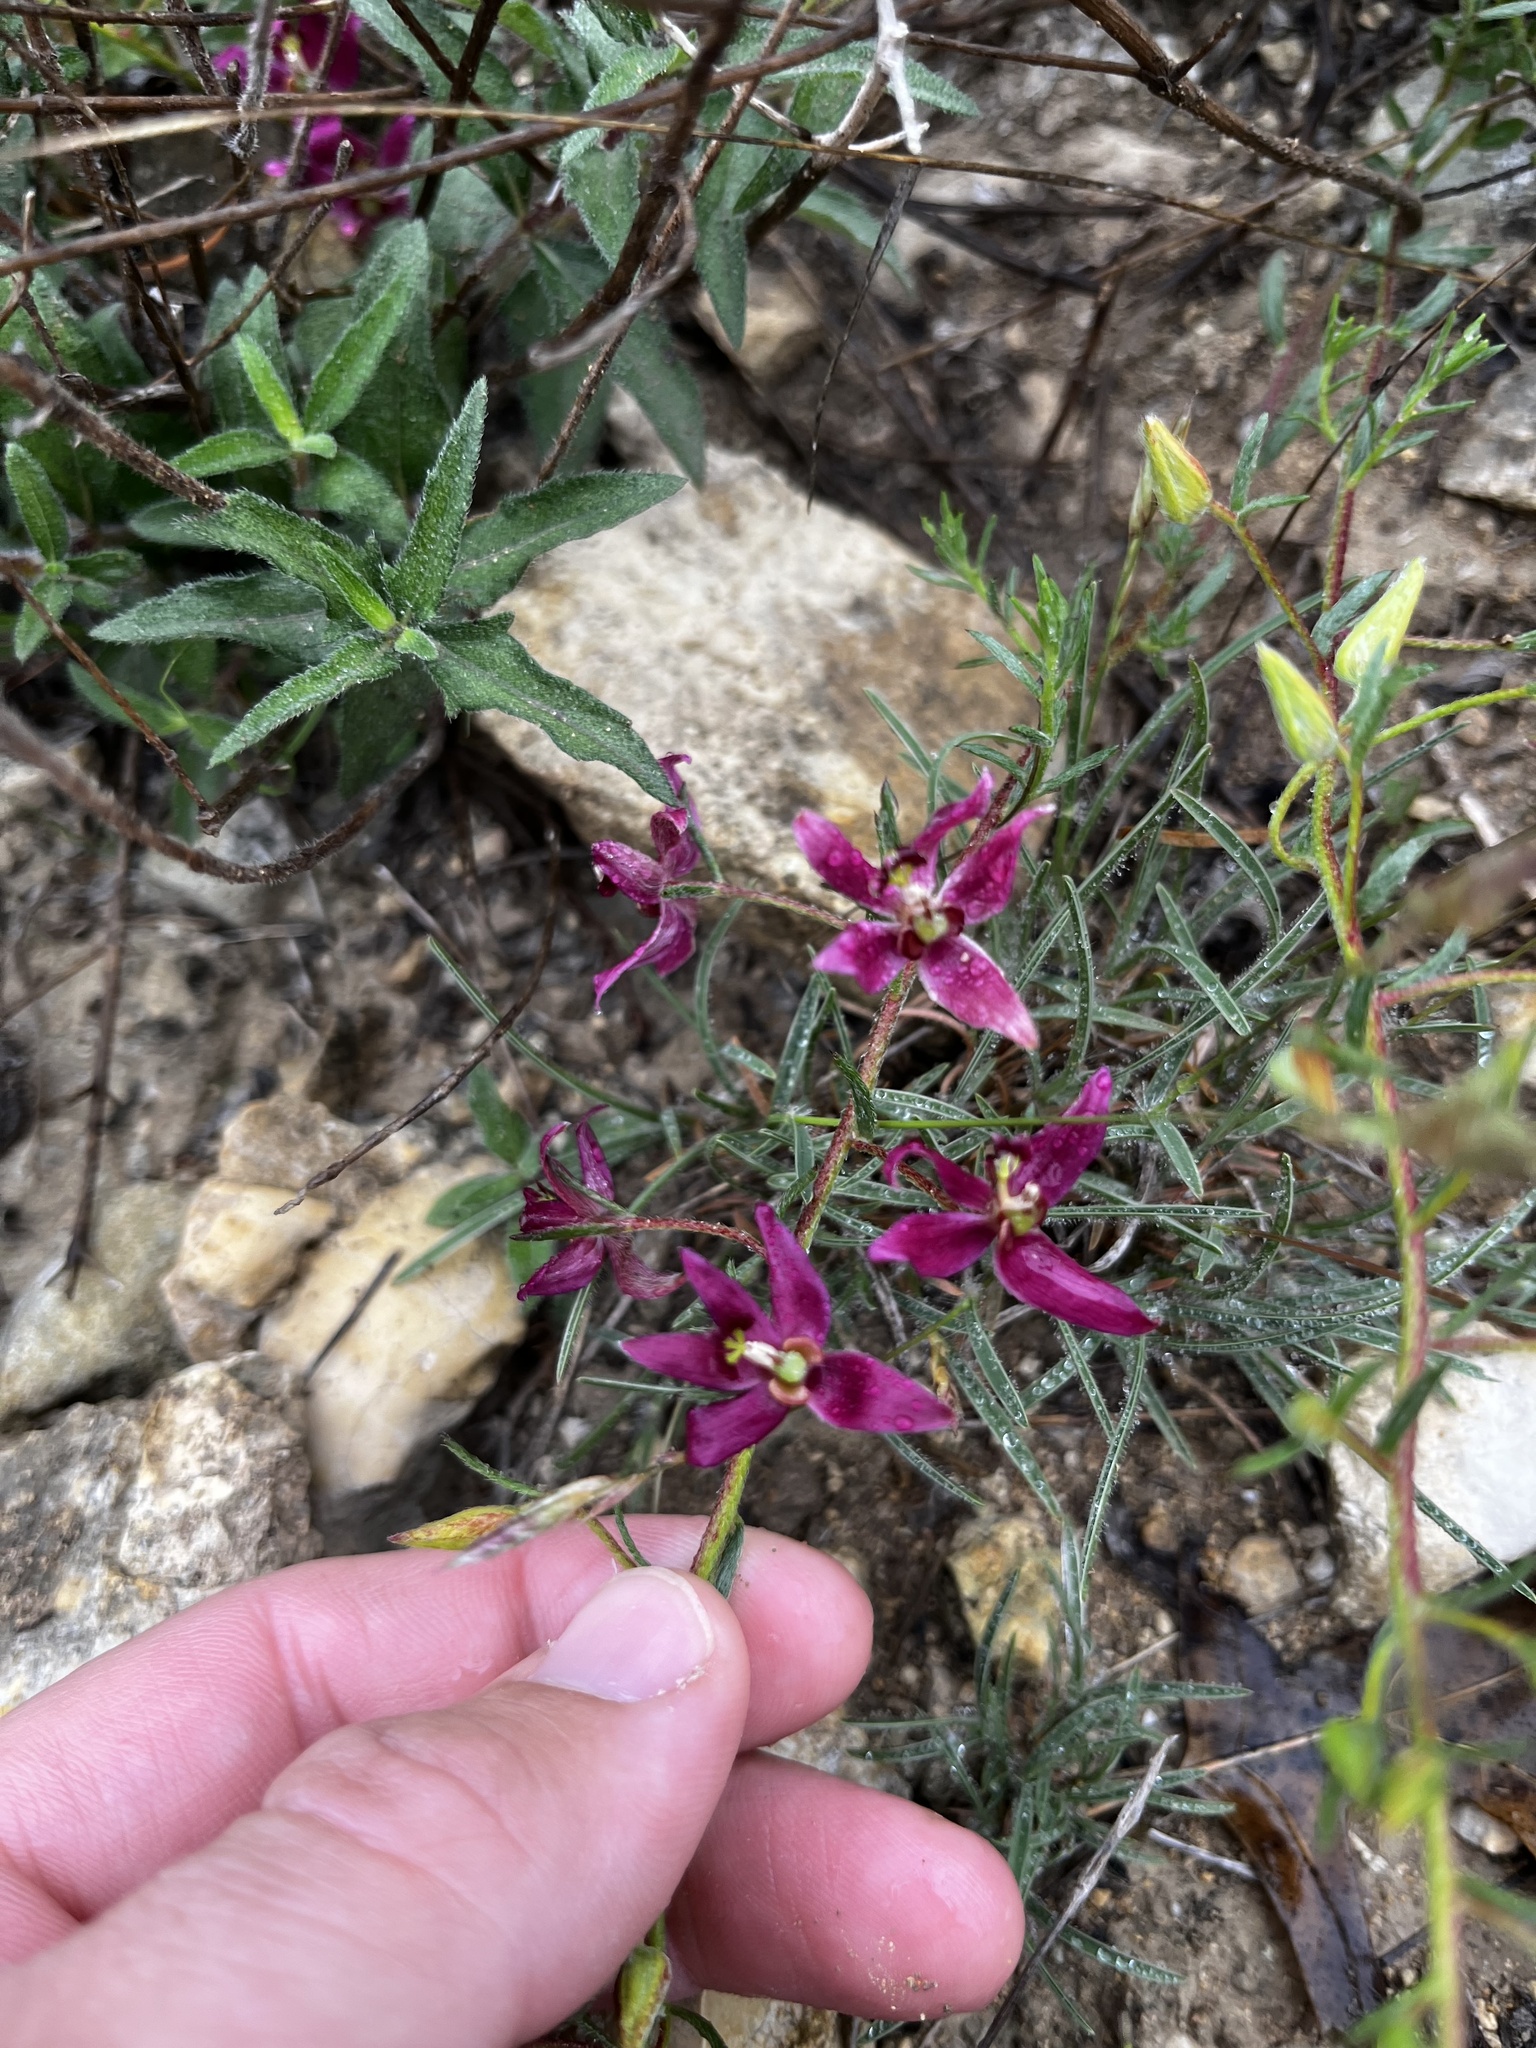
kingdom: Plantae
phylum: Tracheophyta
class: Magnoliopsida
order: Zygophyllales
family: Krameriaceae
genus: Krameria
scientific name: Krameria lanceolata
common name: Ratany
